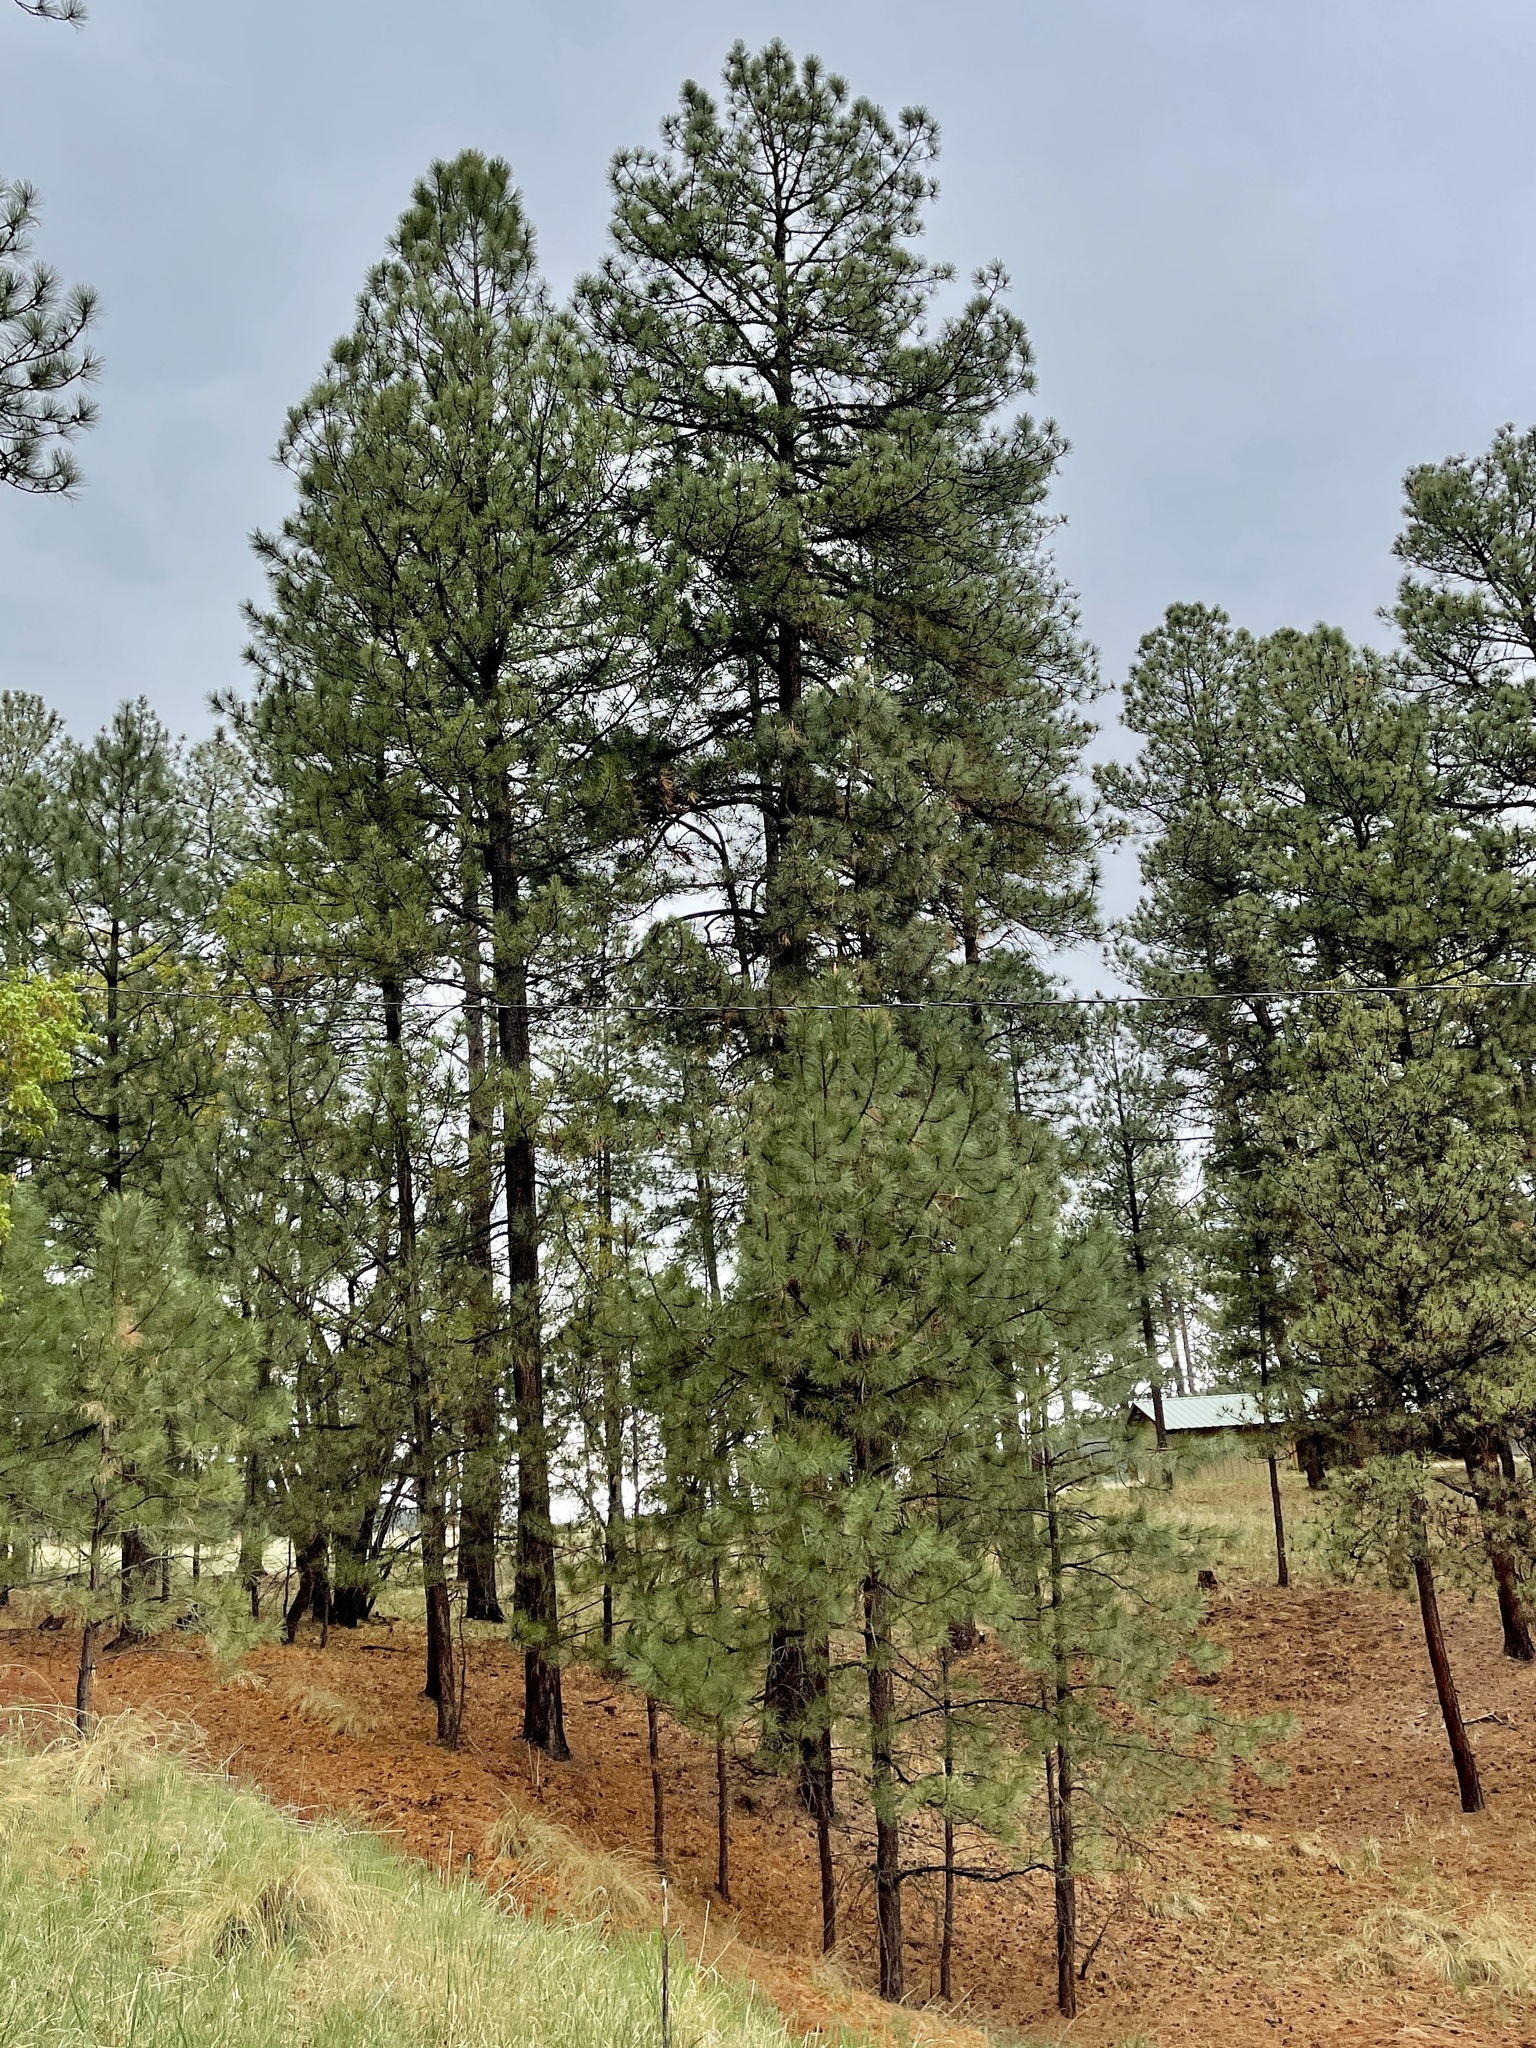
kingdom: Plantae
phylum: Tracheophyta
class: Pinopsida
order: Pinales
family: Pinaceae
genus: Pinus
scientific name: Pinus ponderosa
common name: Western yellow-pine
